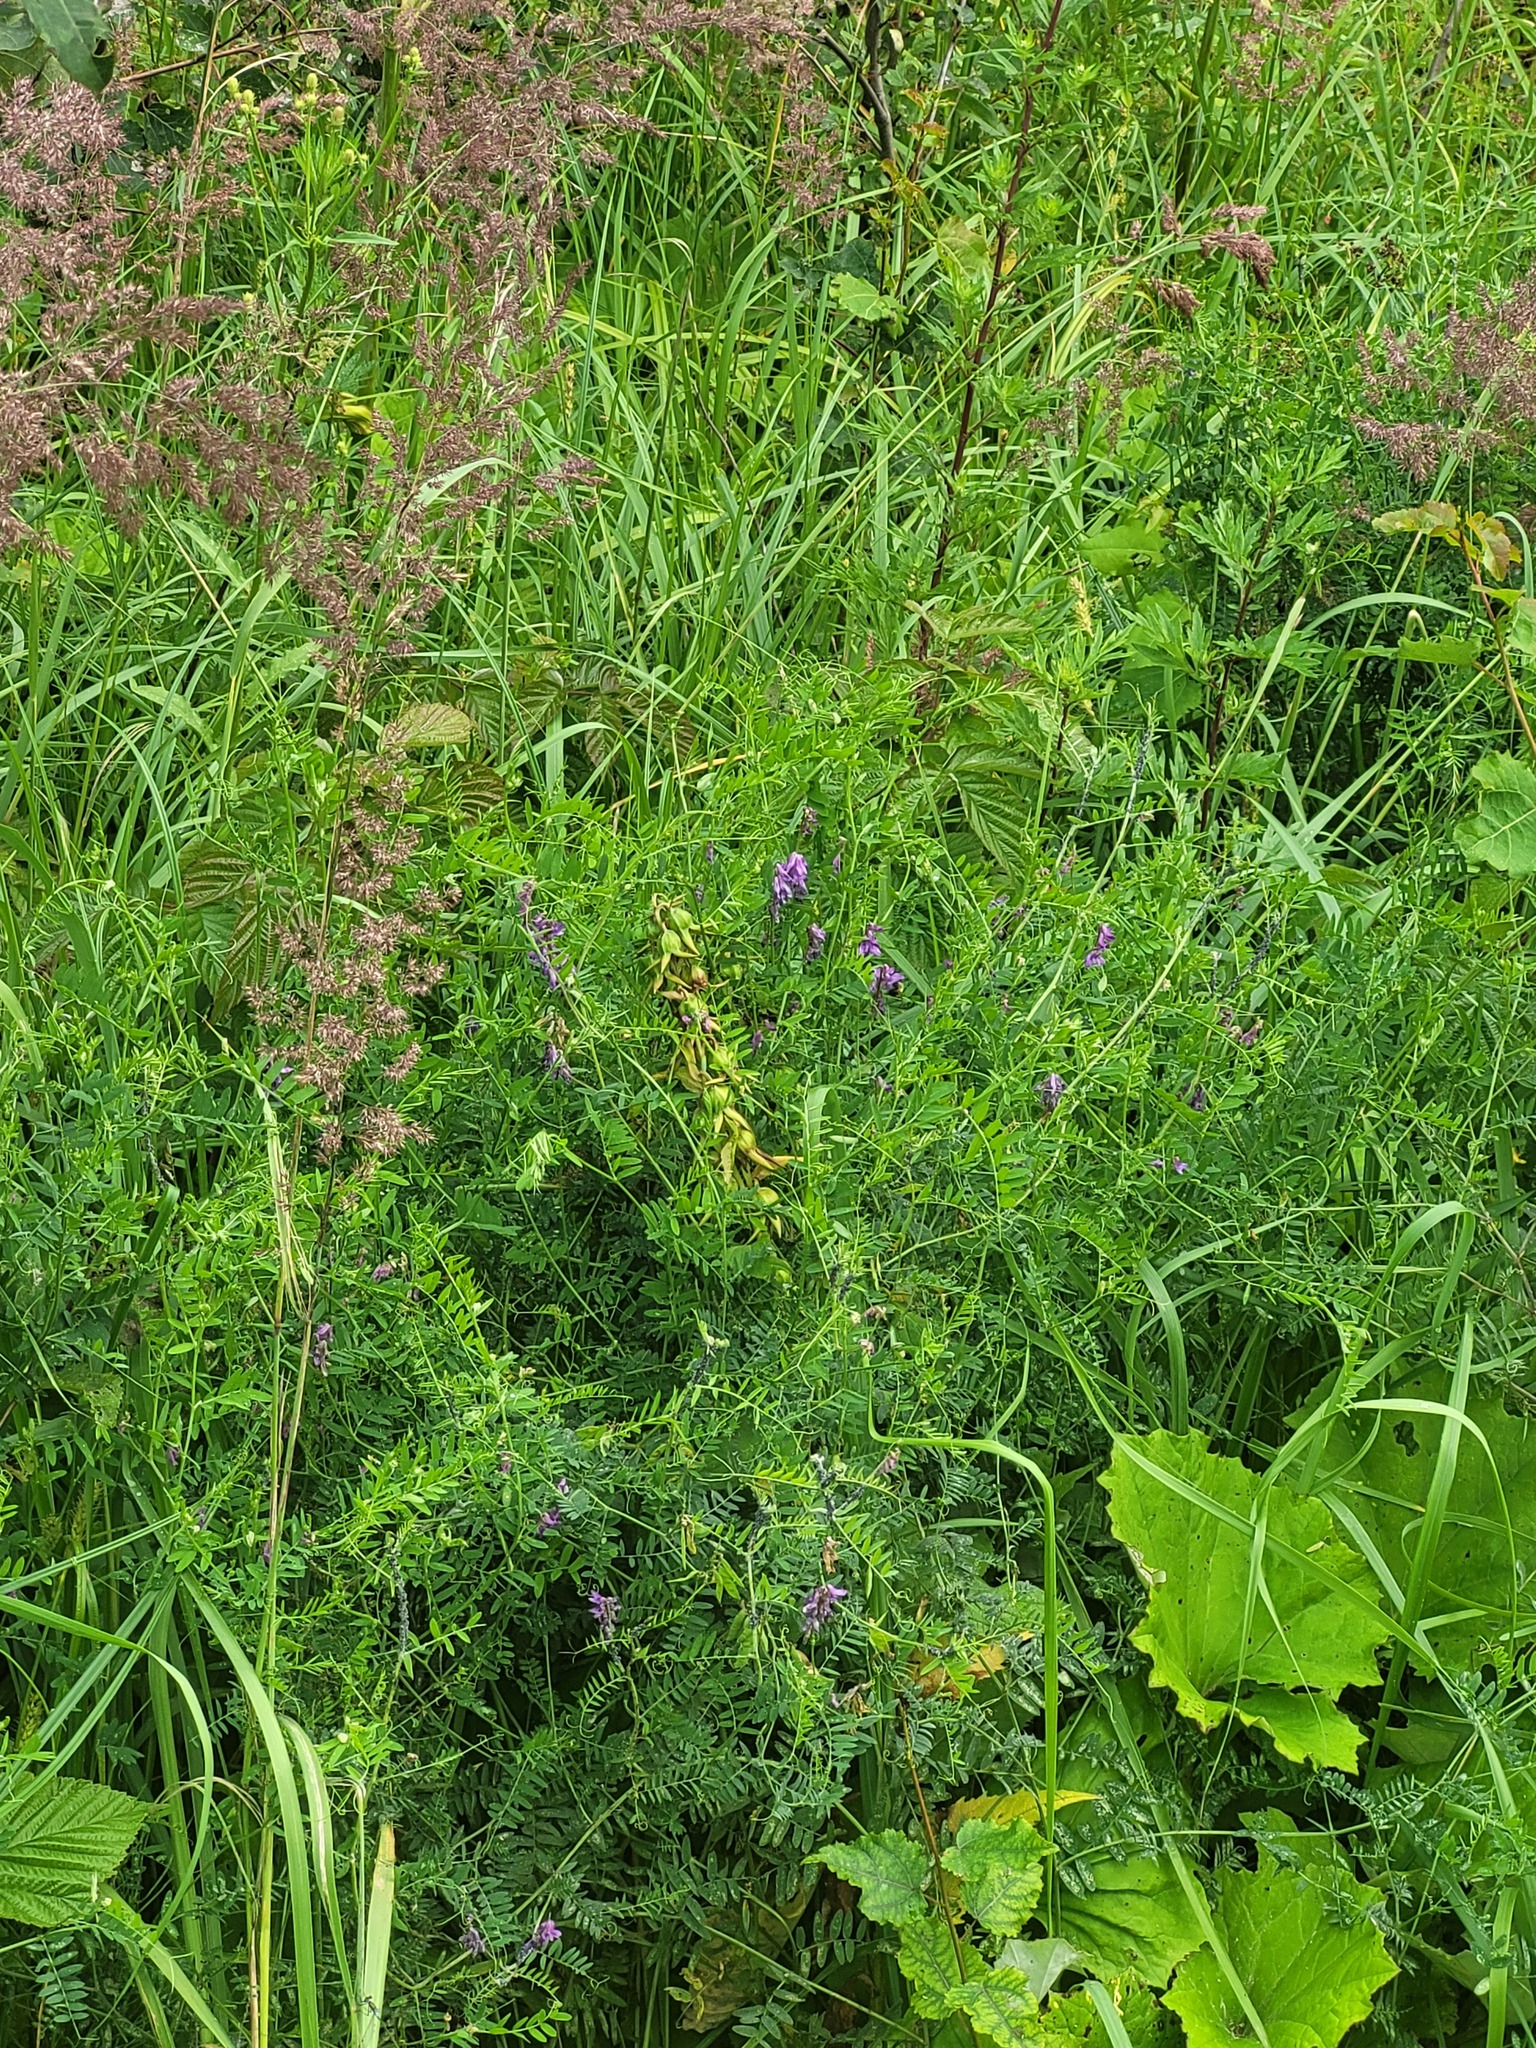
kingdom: Plantae
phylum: Tracheophyta
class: Magnoliopsida
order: Asterales
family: Campanulaceae
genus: Campanula
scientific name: Campanula latifolia
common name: Giant bellflower
